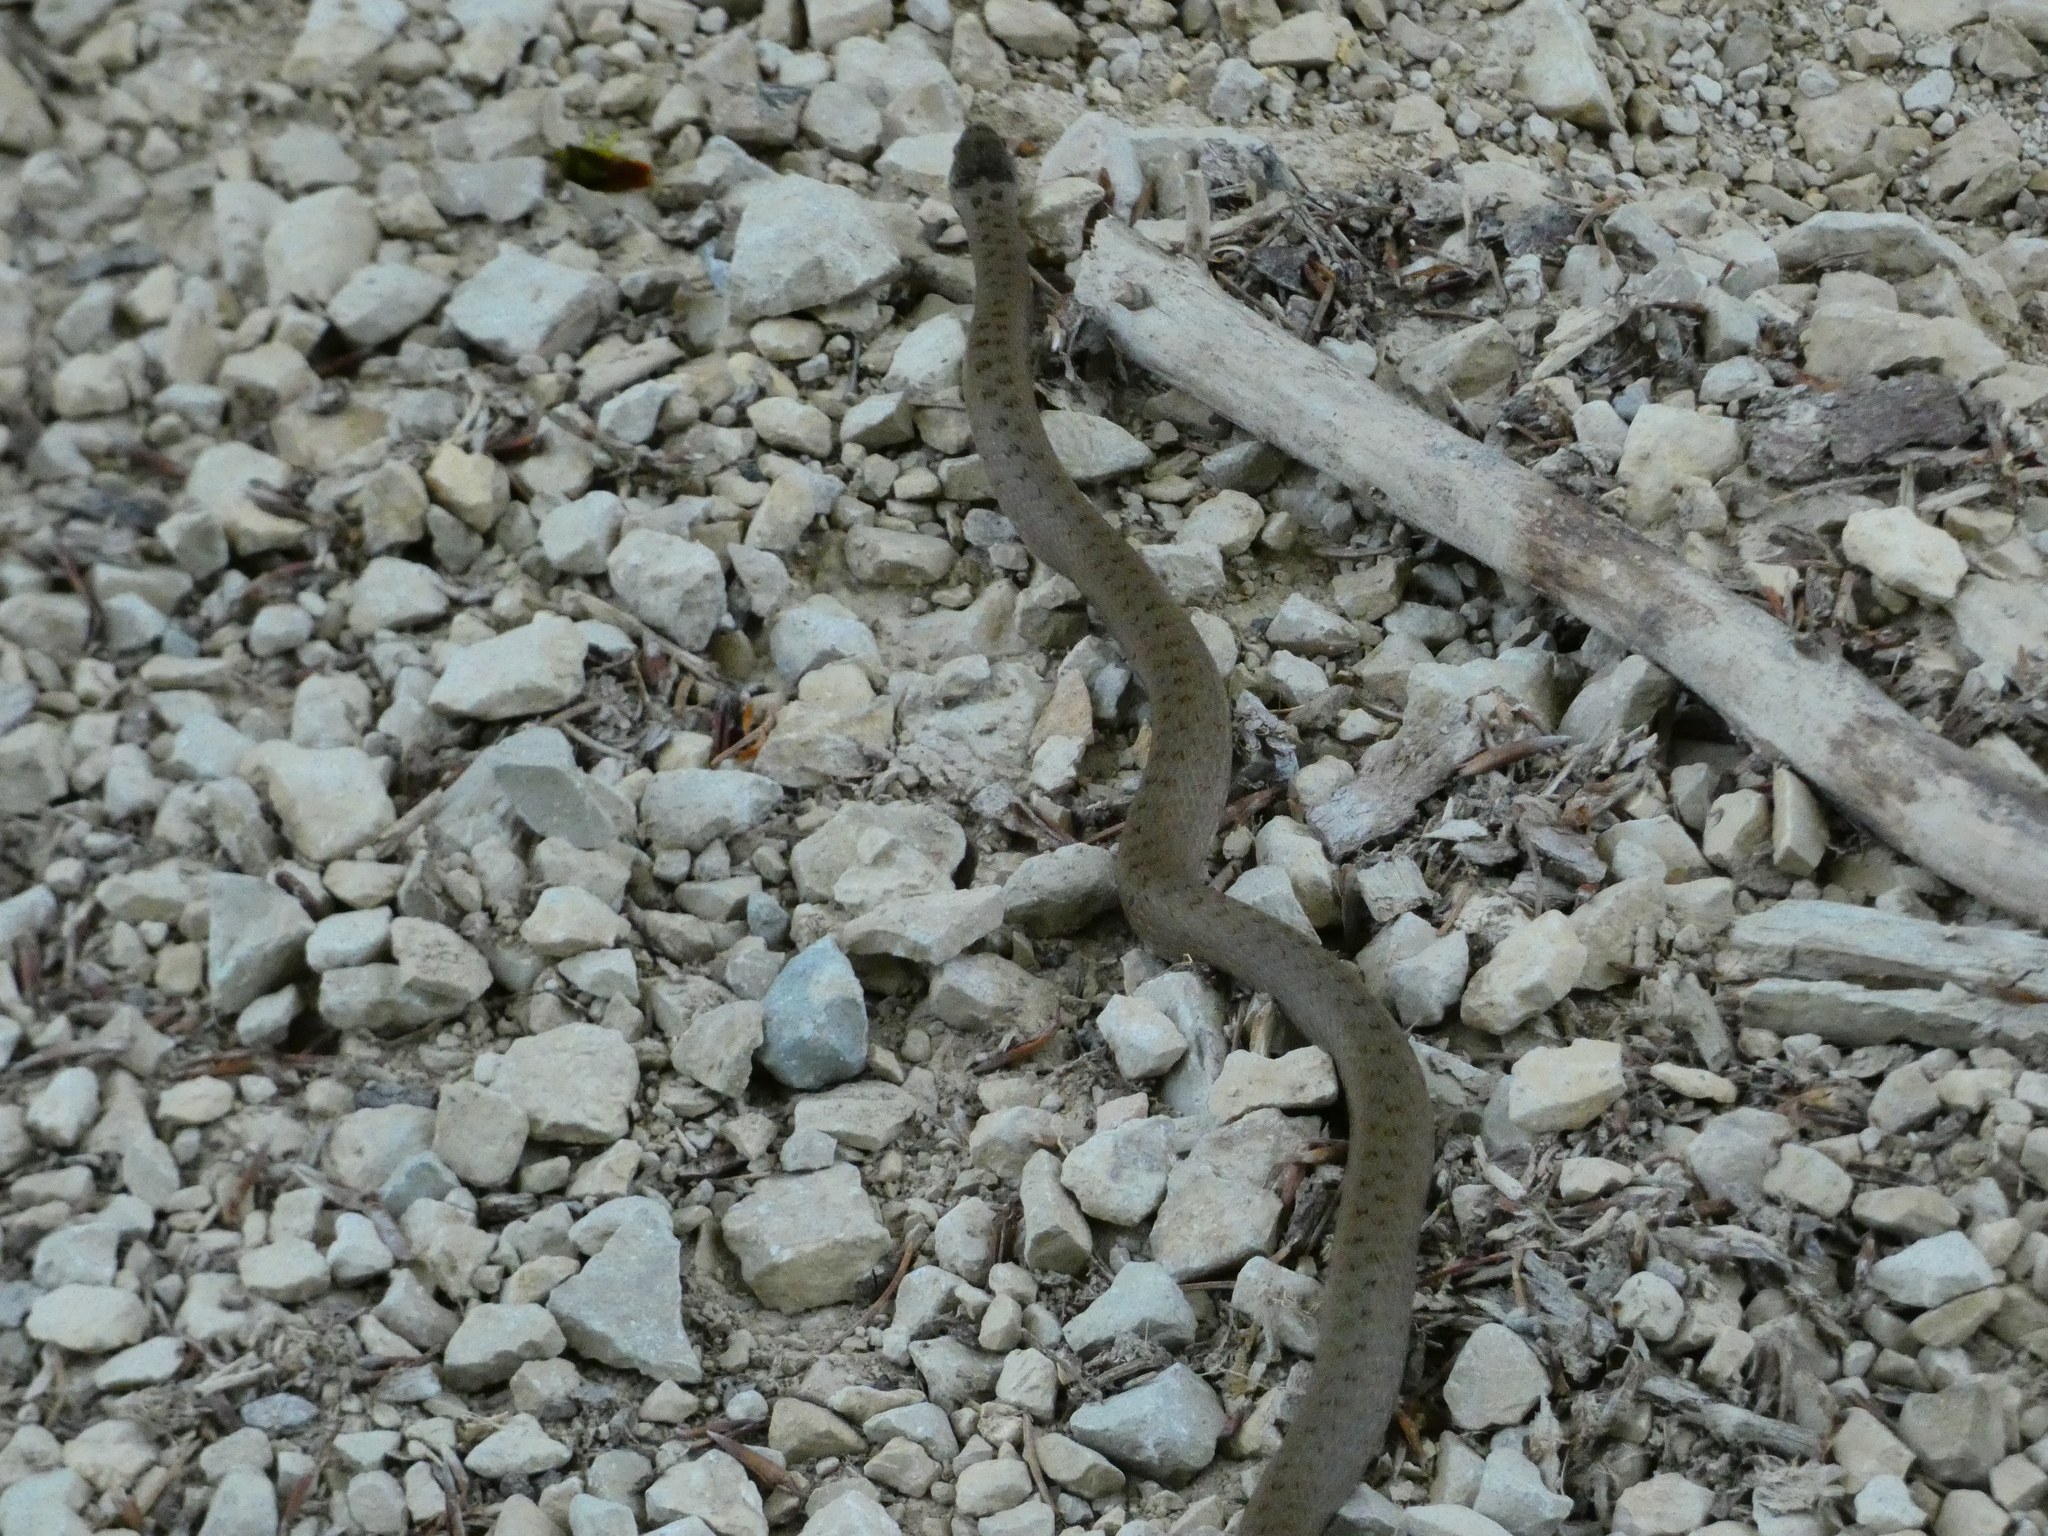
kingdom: Animalia
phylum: Chordata
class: Squamata
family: Colubridae
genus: Coronella
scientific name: Coronella austriaca
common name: Smooth snake
